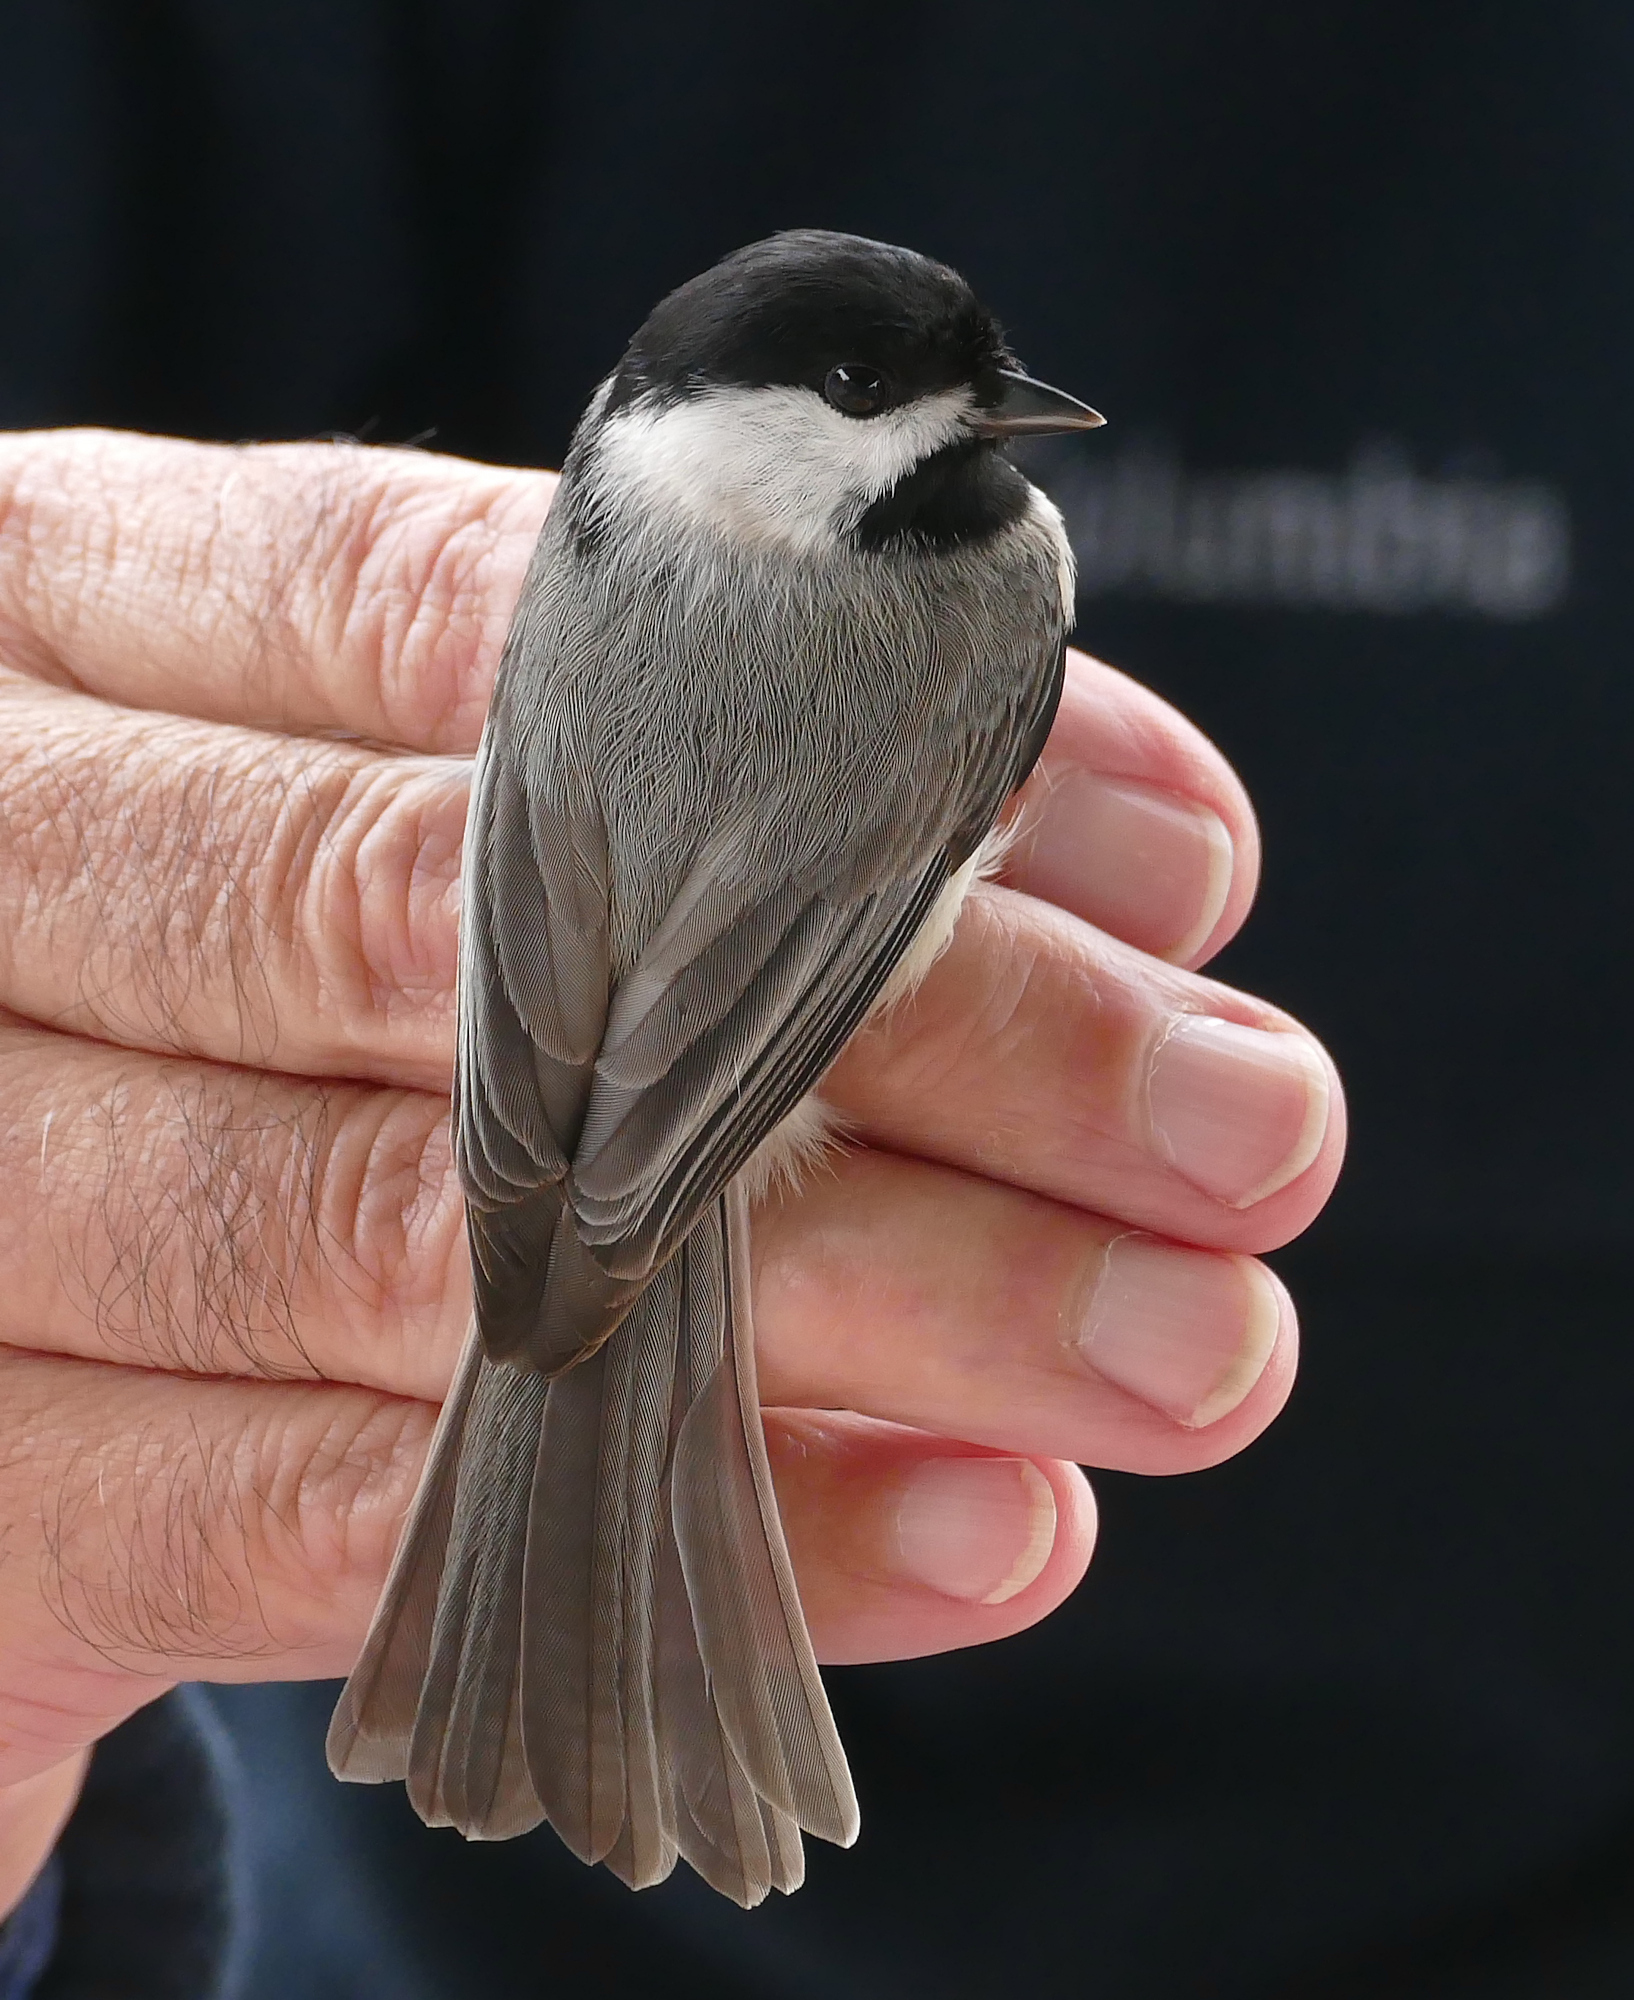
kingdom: Animalia
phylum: Chordata
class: Aves
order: Passeriformes
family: Paridae
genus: Poecile
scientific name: Poecile carolinensis
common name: Carolina chickadee
